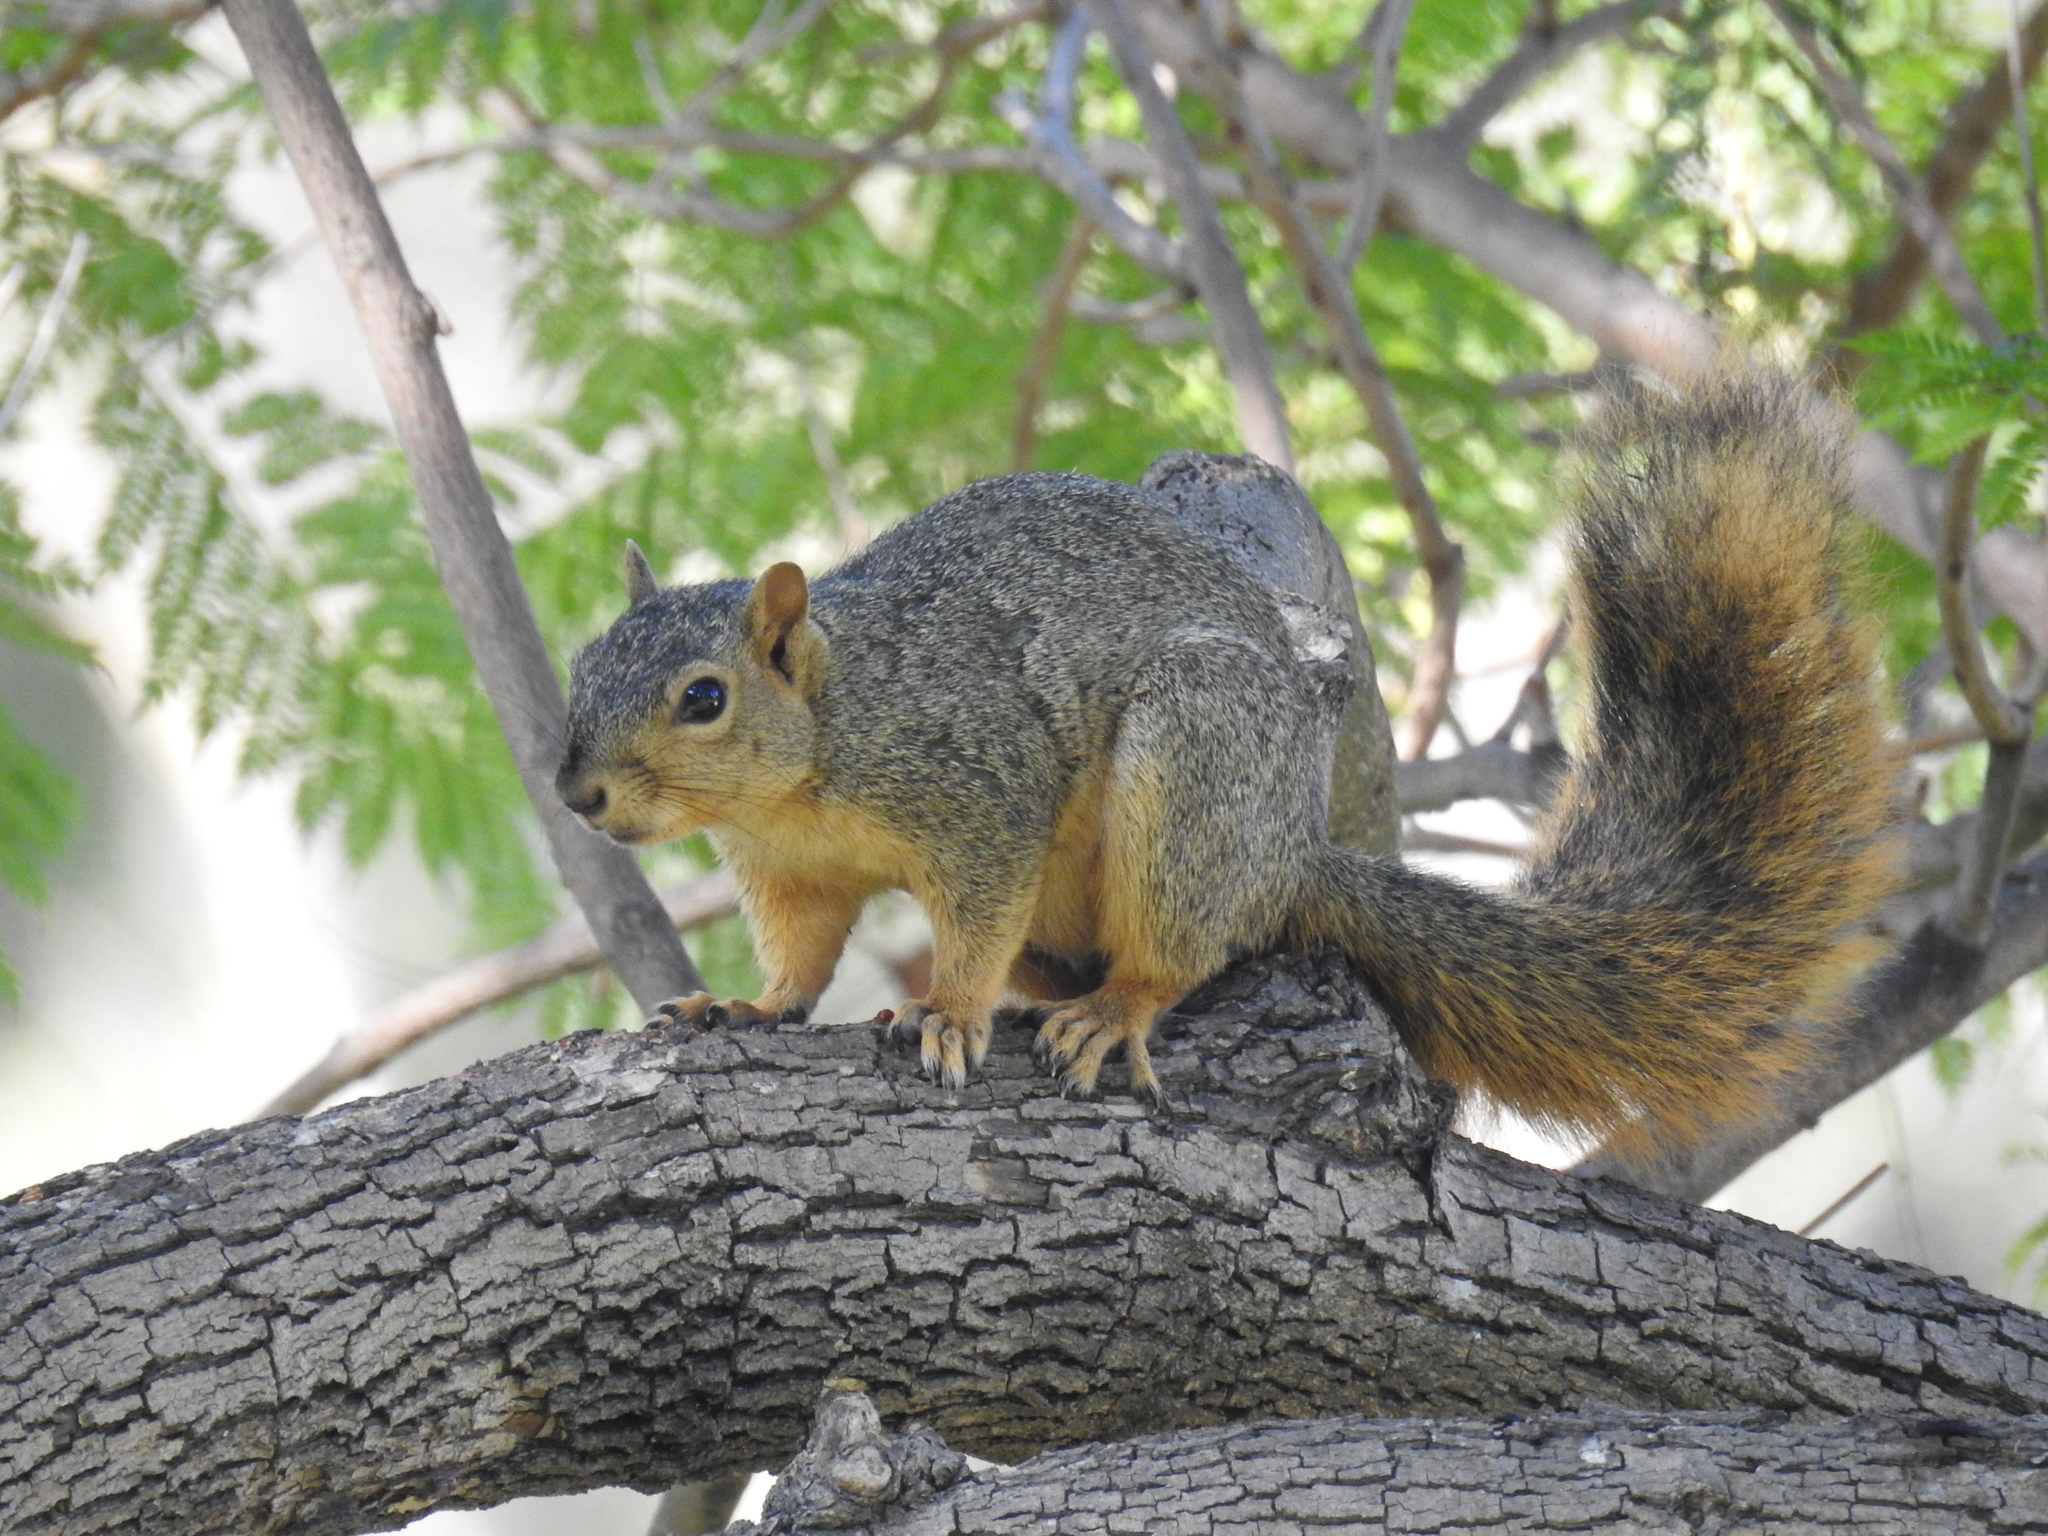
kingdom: Animalia
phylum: Chordata
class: Mammalia
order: Rodentia
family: Sciuridae
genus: Sciurus
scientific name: Sciurus niger
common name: Fox squirrel
